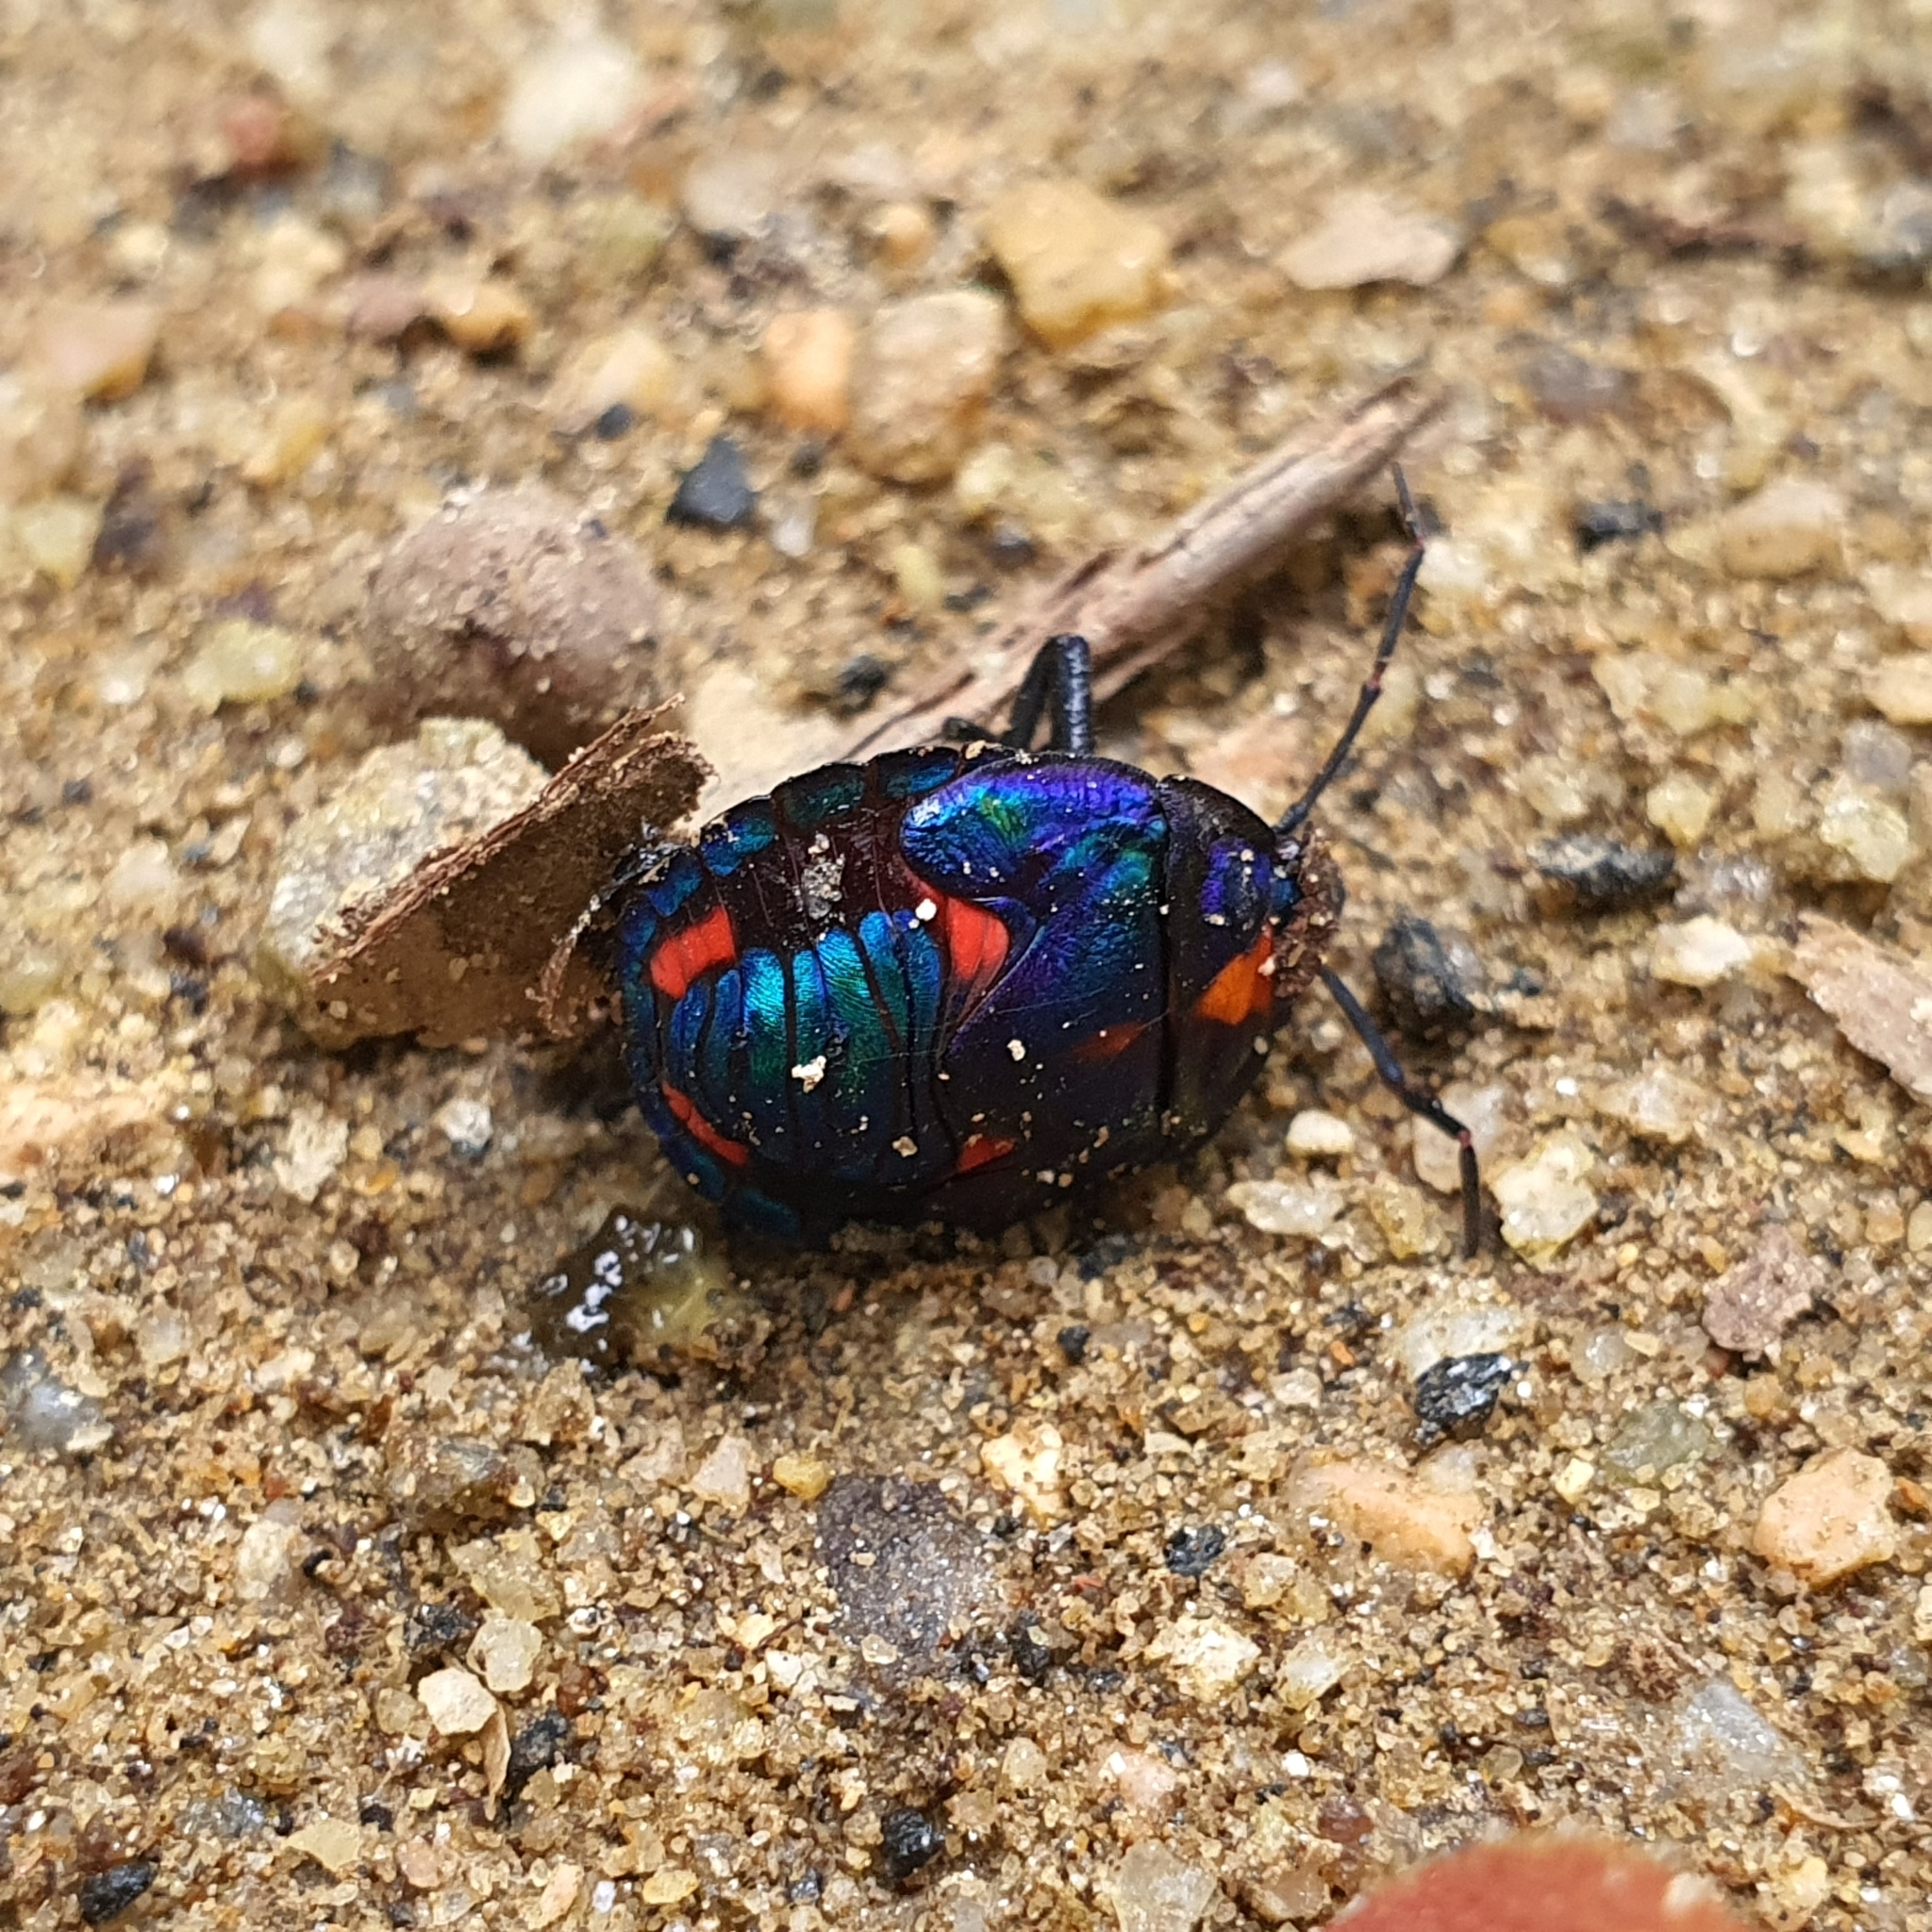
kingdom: Animalia
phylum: Arthropoda
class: Insecta
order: Hemiptera
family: Scutelleridae
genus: Tectocoris
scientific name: Tectocoris diophthalmus
